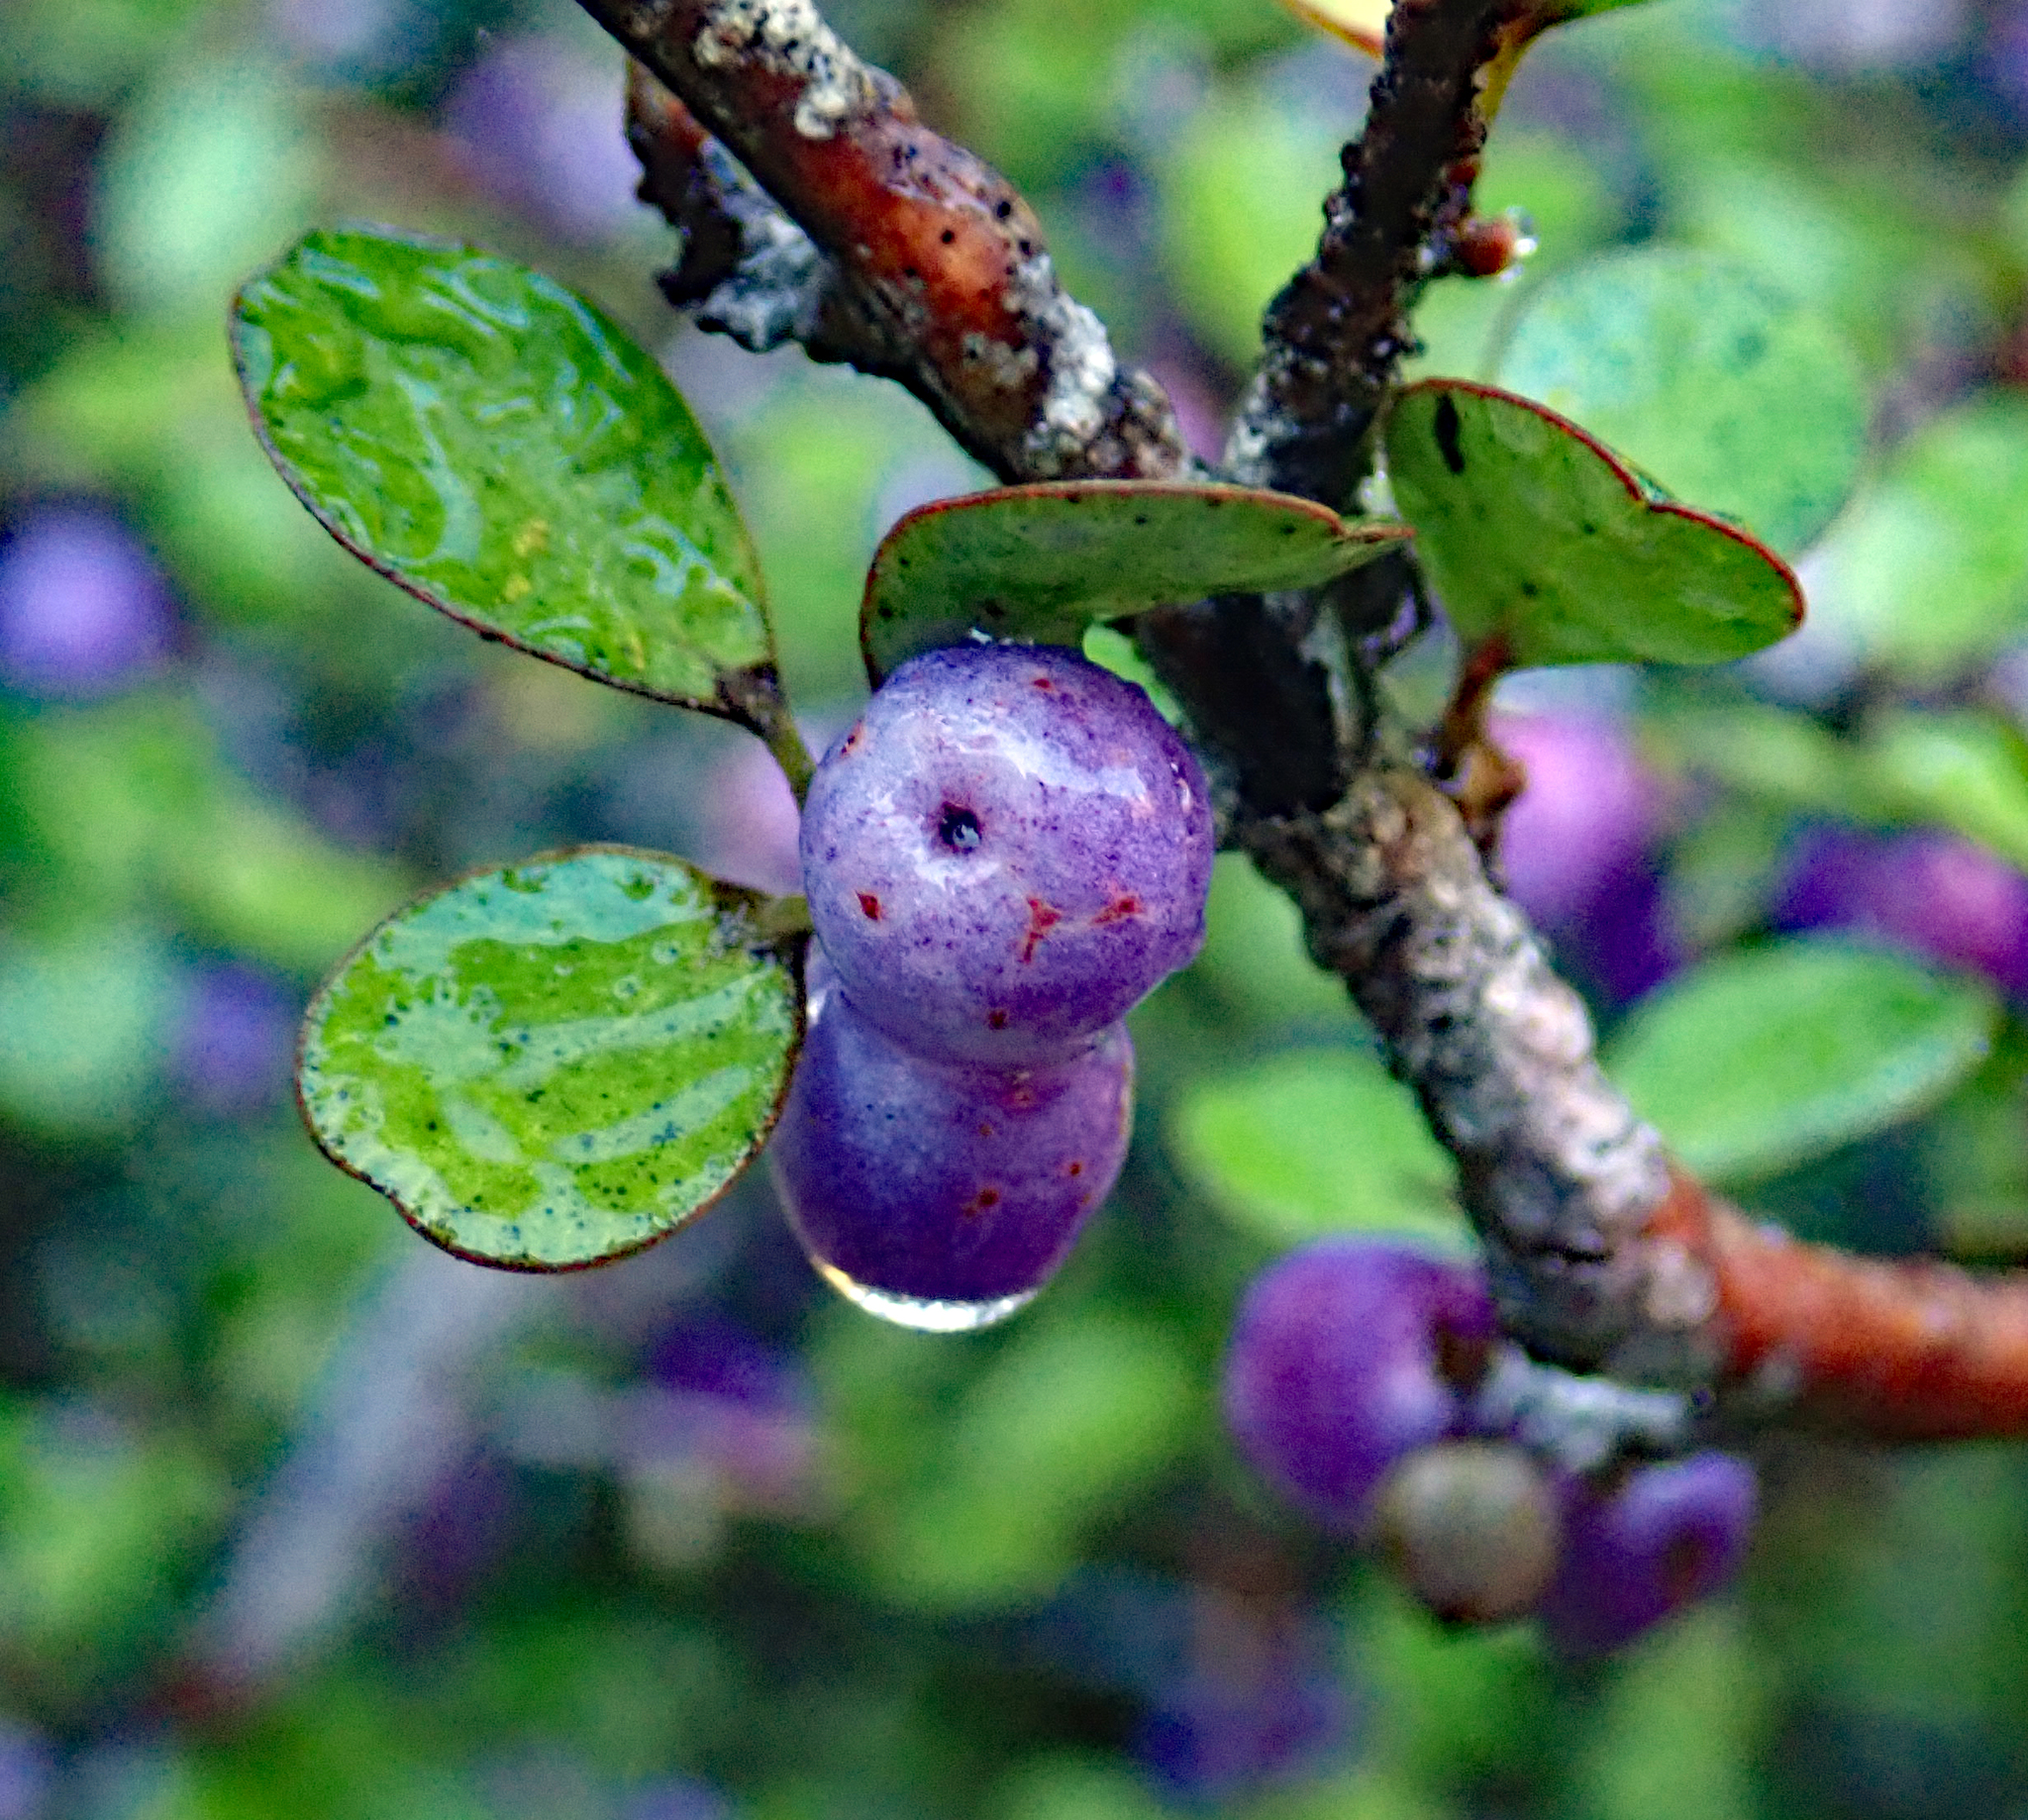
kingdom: Plantae
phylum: Tracheophyta
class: Magnoliopsida
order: Ericales
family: Primulaceae
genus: Myrsine
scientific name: Myrsine divaricata
